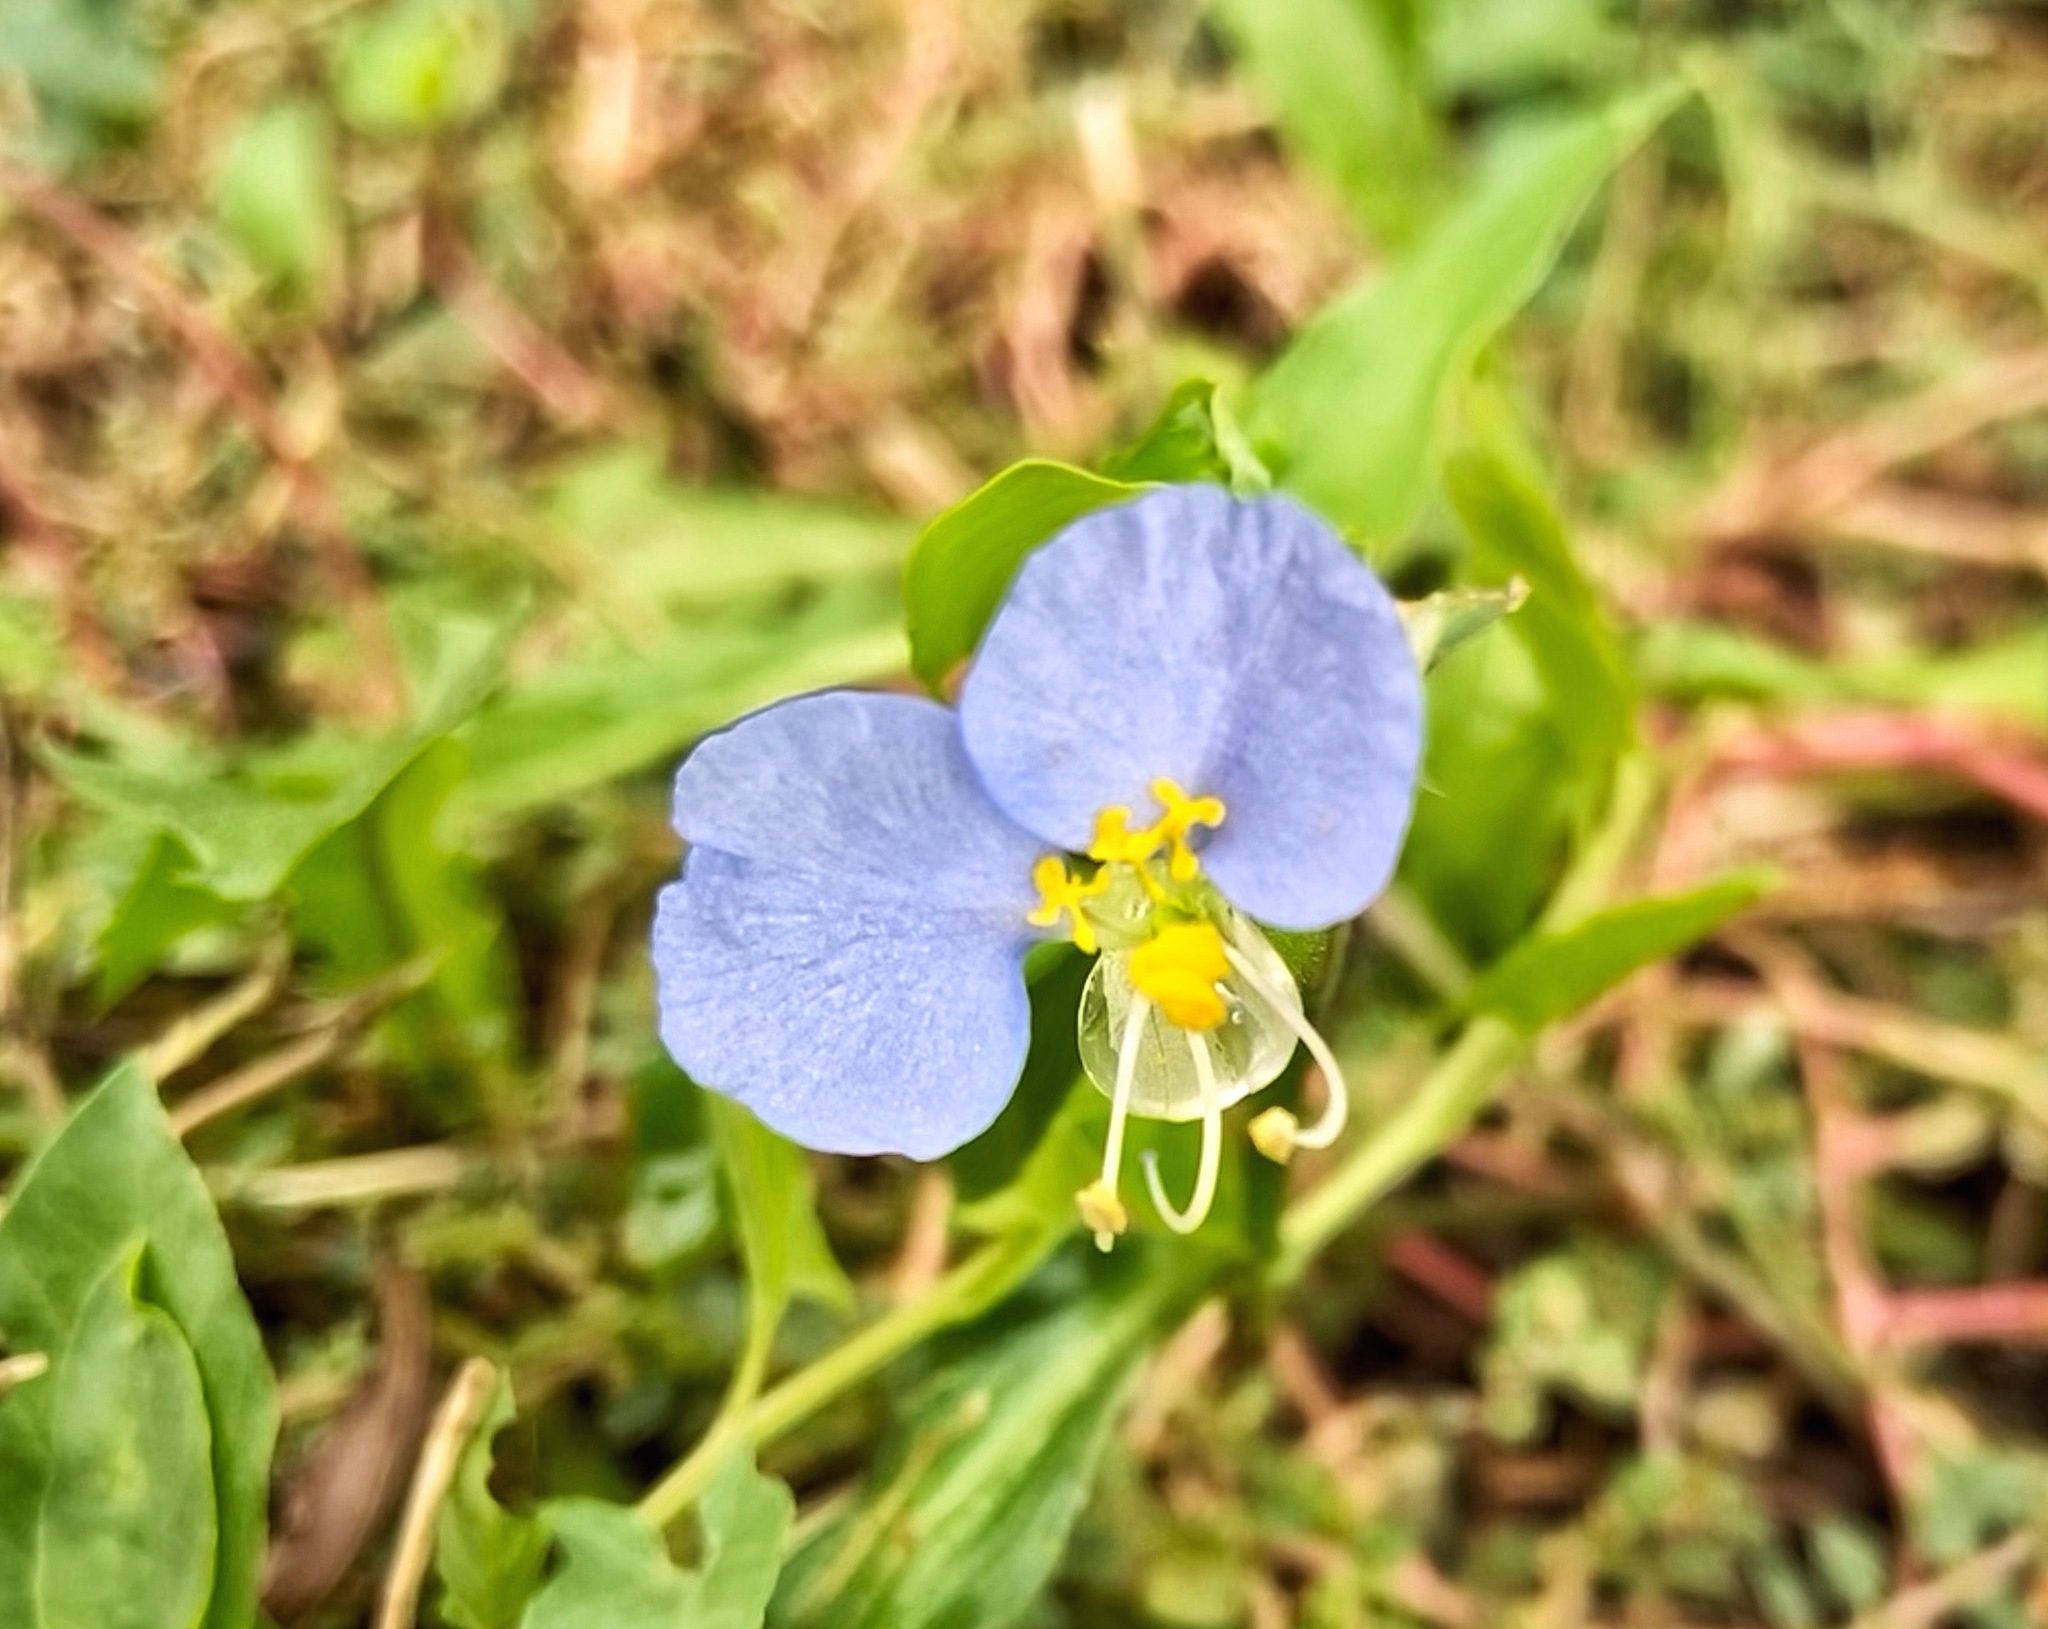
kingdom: Plantae
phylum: Tracheophyta
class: Liliopsida
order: Commelinales
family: Commelinaceae
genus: Commelina
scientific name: Commelina erecta
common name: Blousel blommetjie
